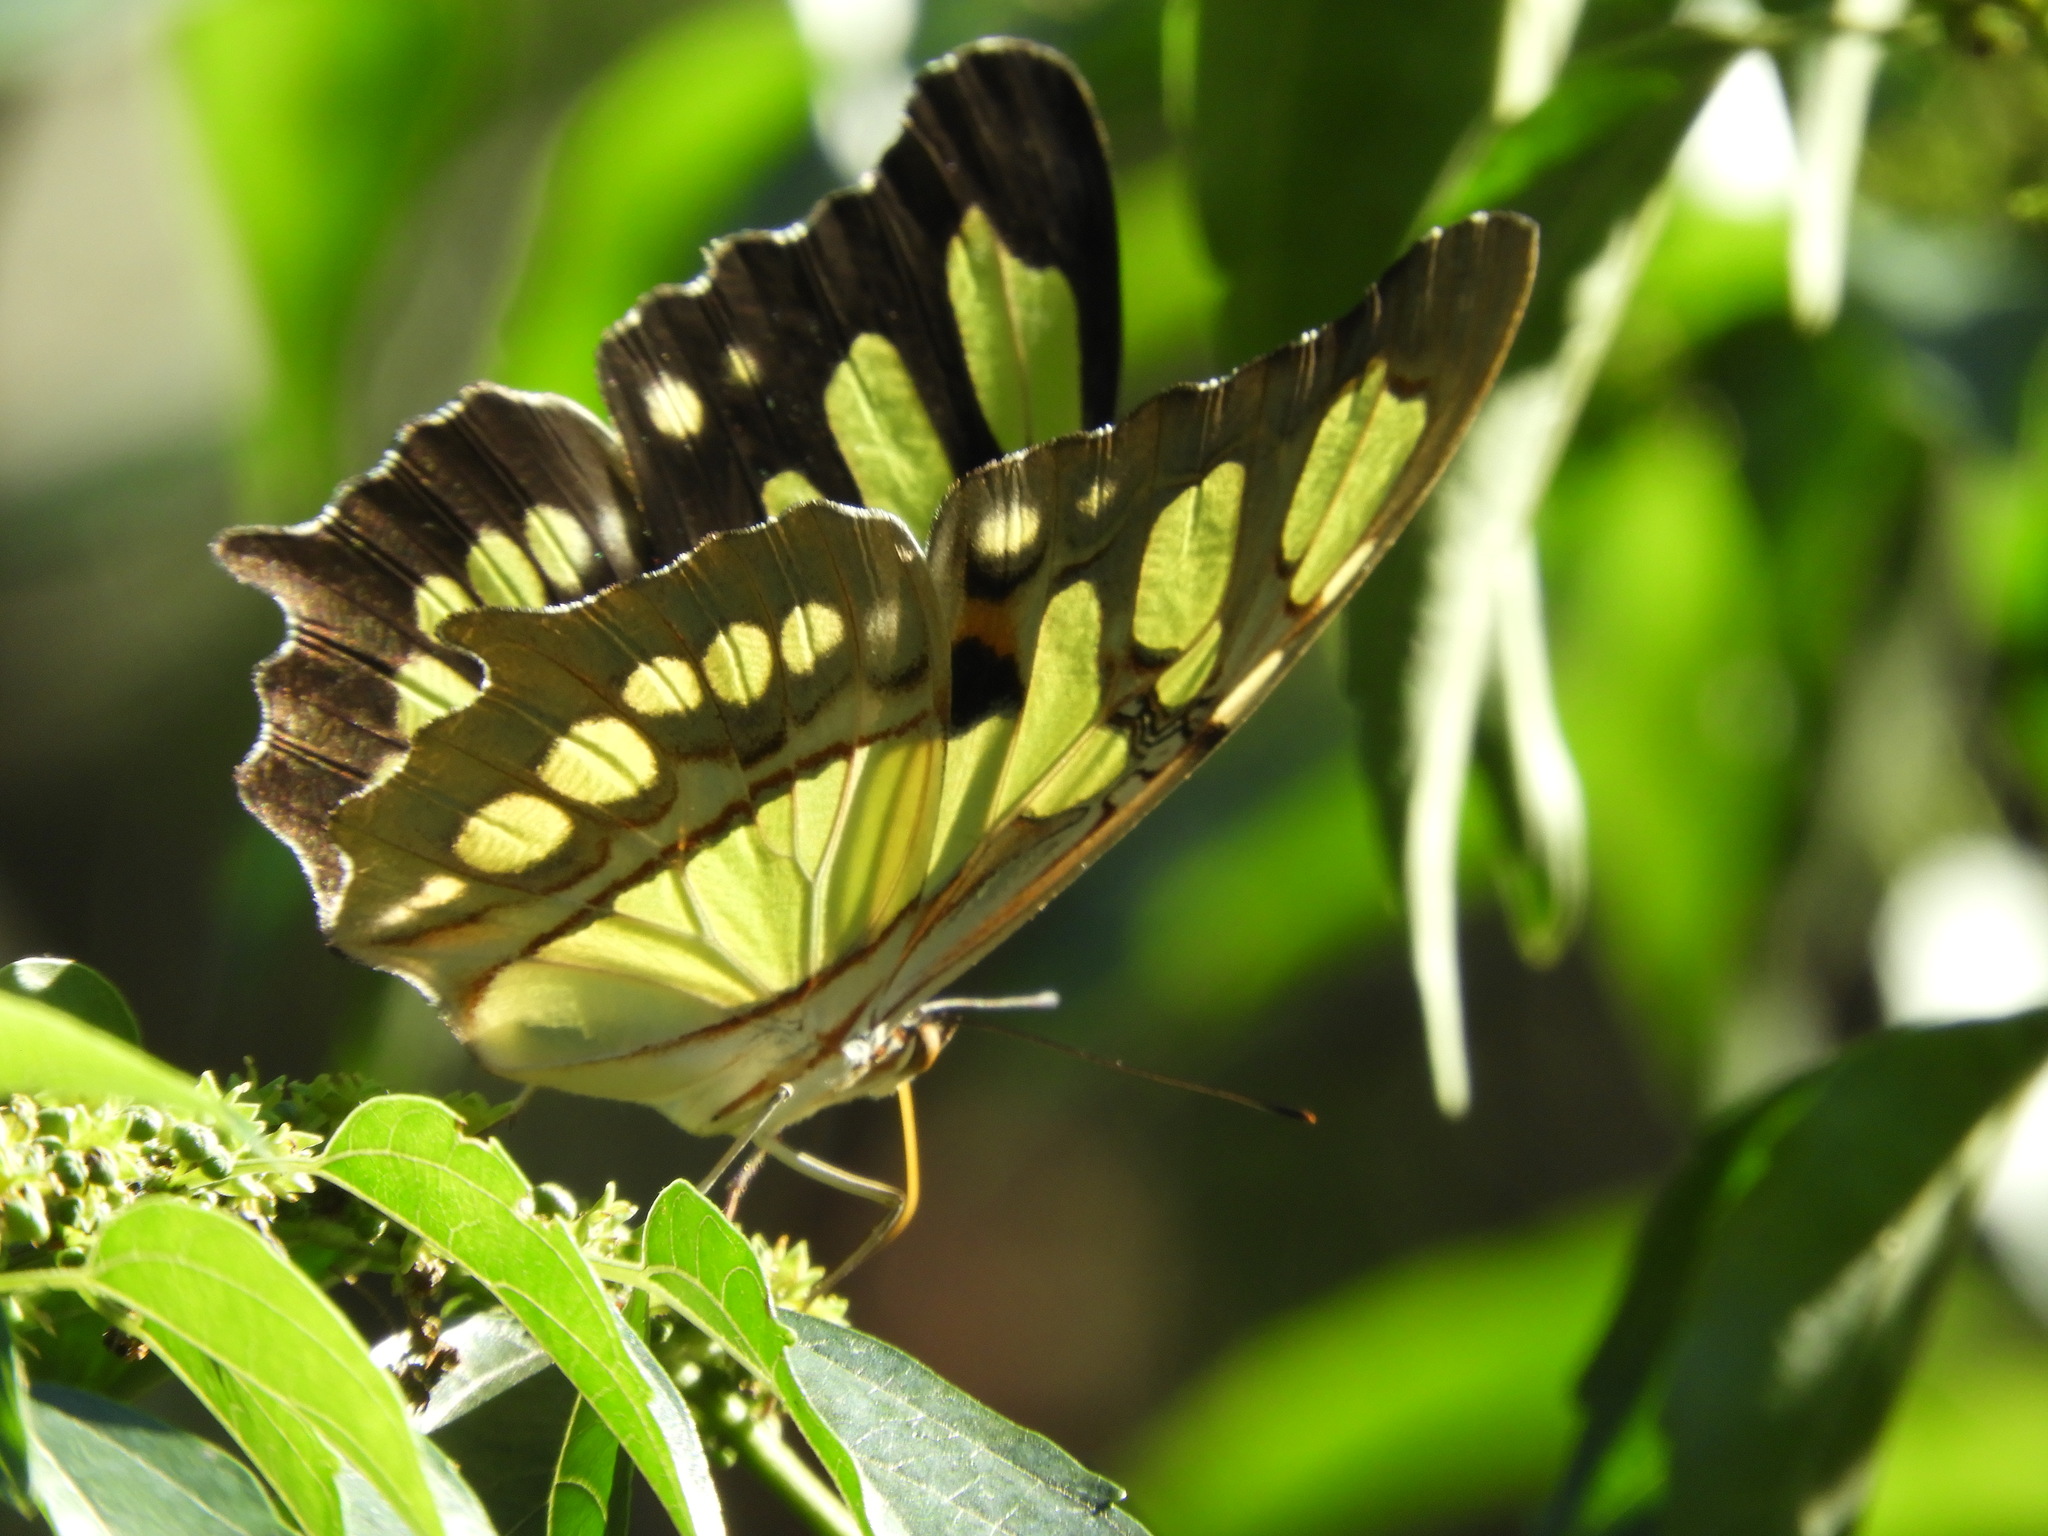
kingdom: Animalia
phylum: Arthropoda
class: Insecta
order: Lepidoptera
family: Nymphalidae
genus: Siproeta
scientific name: Siproeta stelenes
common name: Malachite
